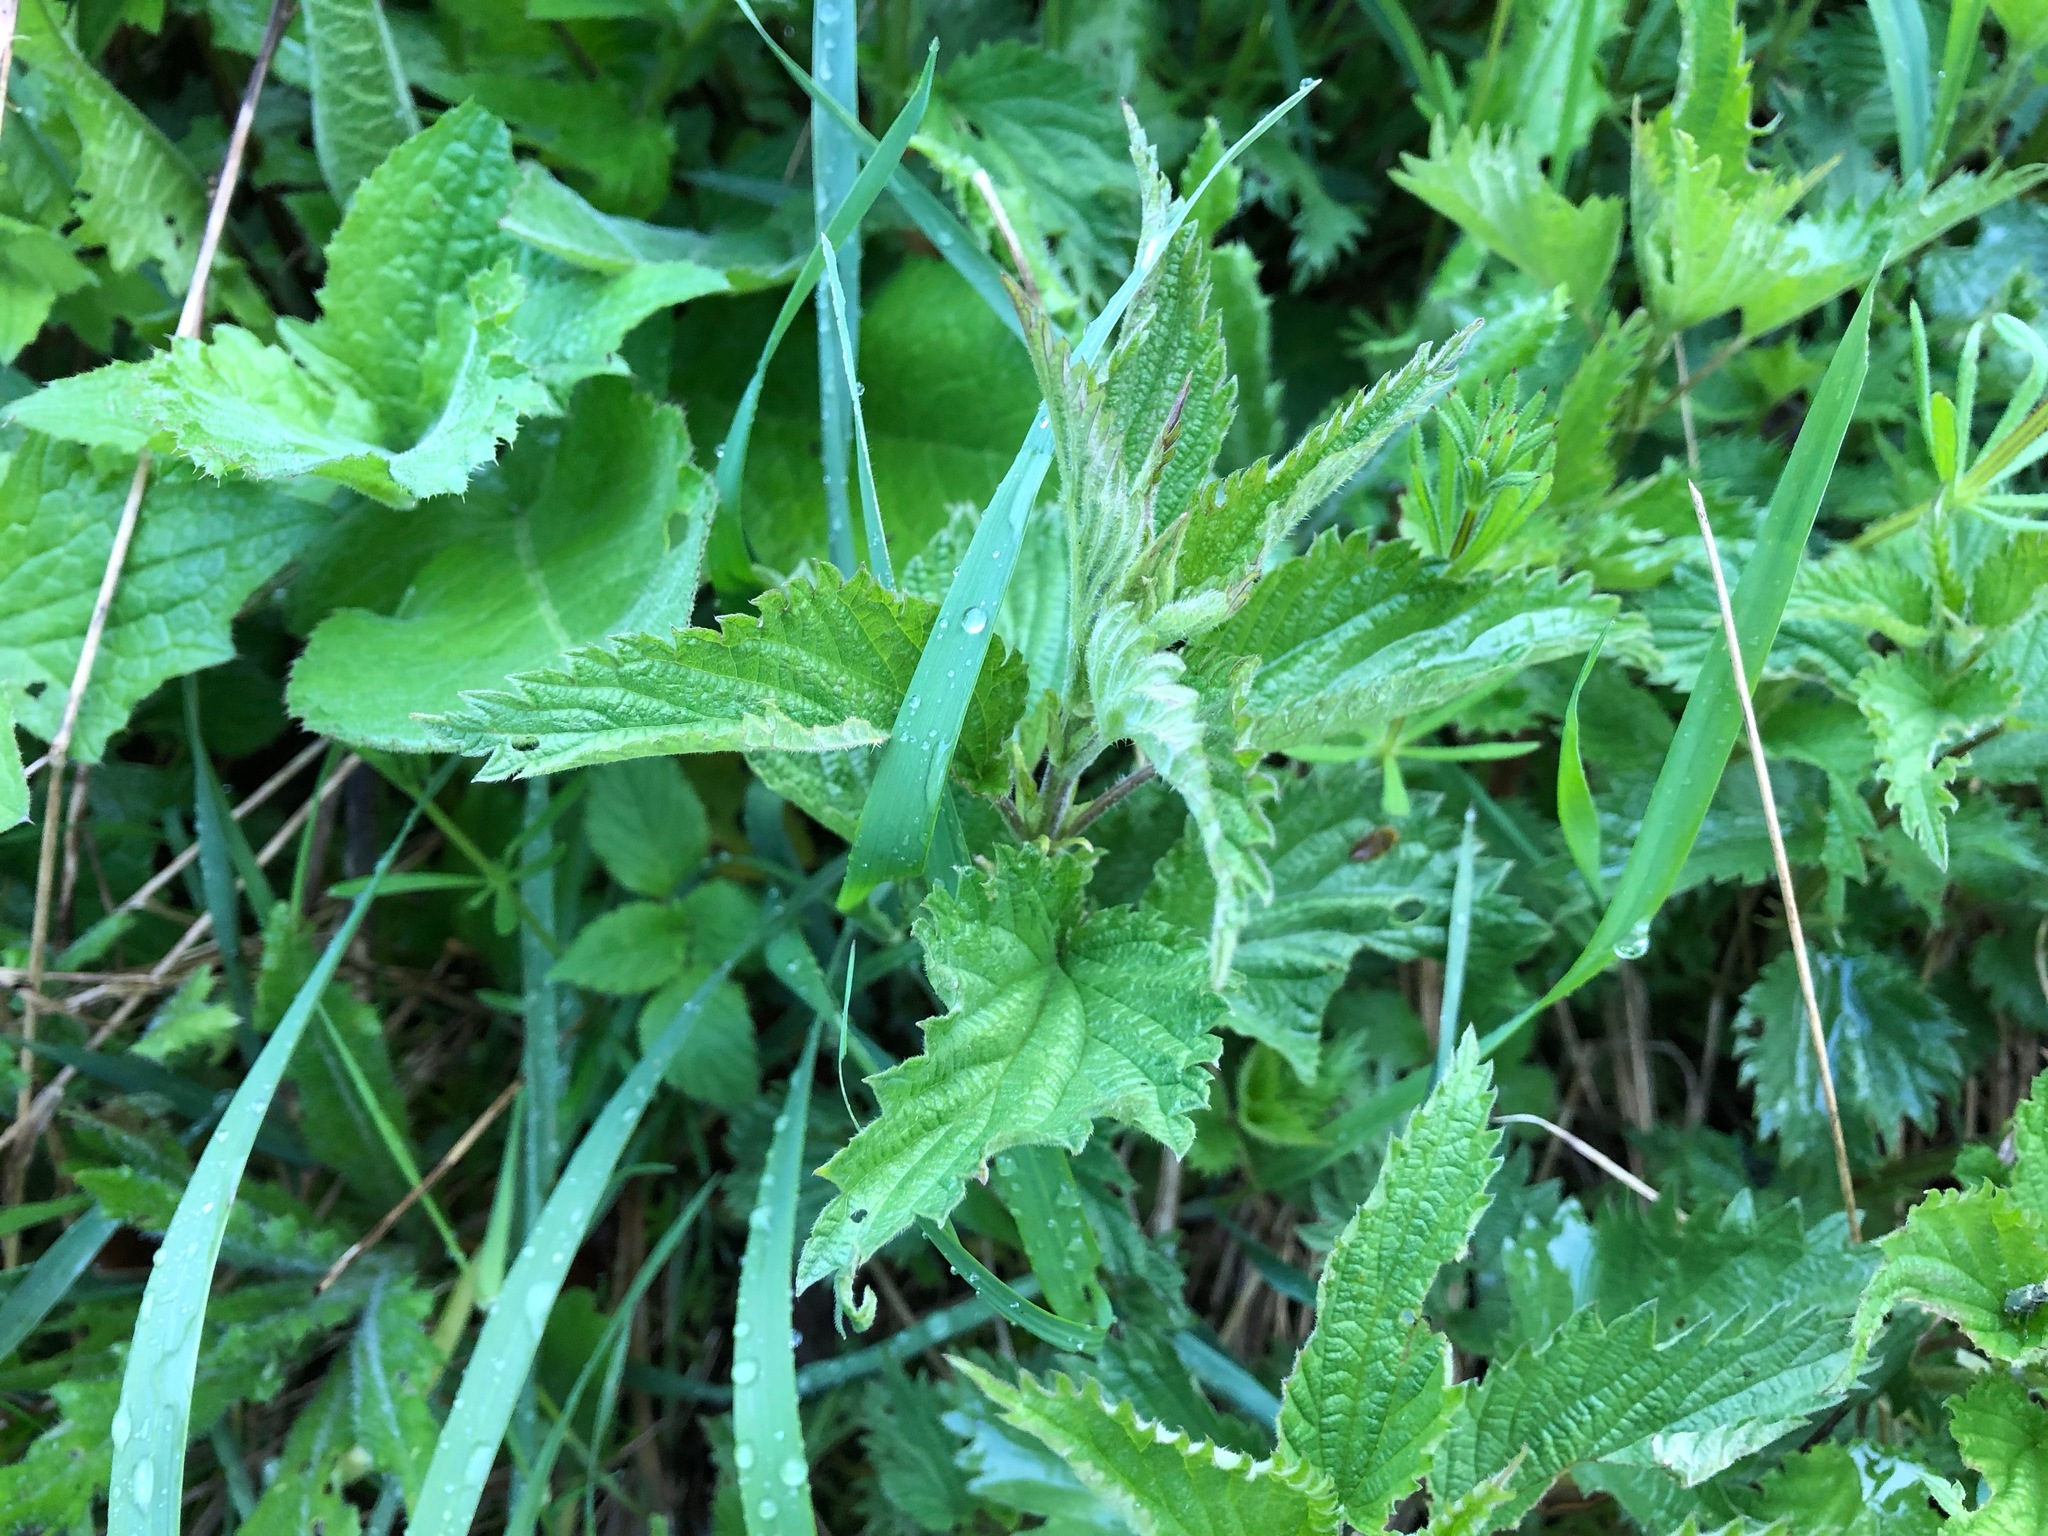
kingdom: Plantae
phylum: Tracheophyta
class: Magnoliopsida
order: Rosales
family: Urticaceae
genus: Urtica
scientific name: Urtica dioica
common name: Common nettle
